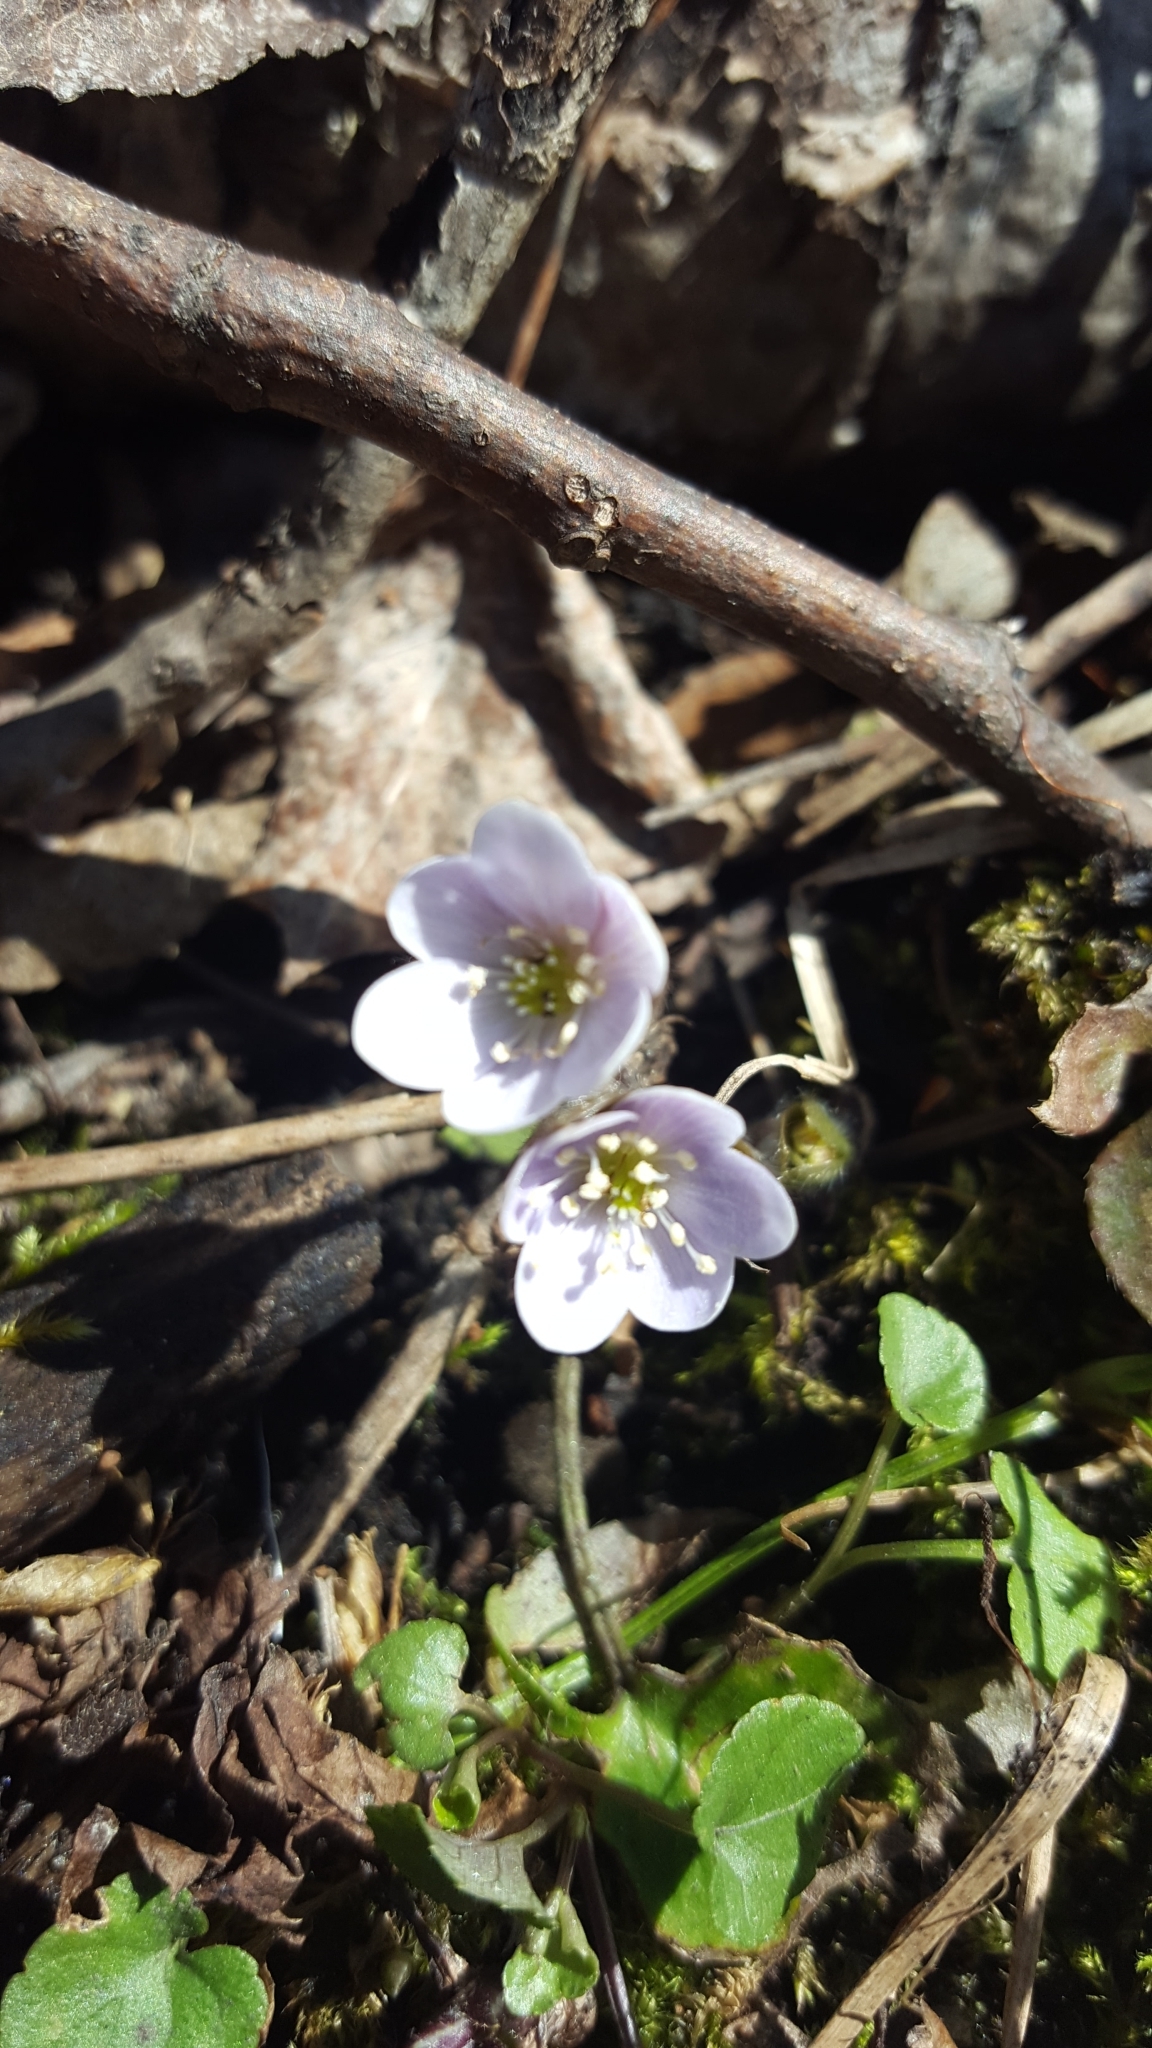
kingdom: Plantae
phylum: Tracheophyta
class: Magnoliopsida
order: Ranunculales
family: Ranunculaceae
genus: Hepatica
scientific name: Hepatica americana
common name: American hepatica
